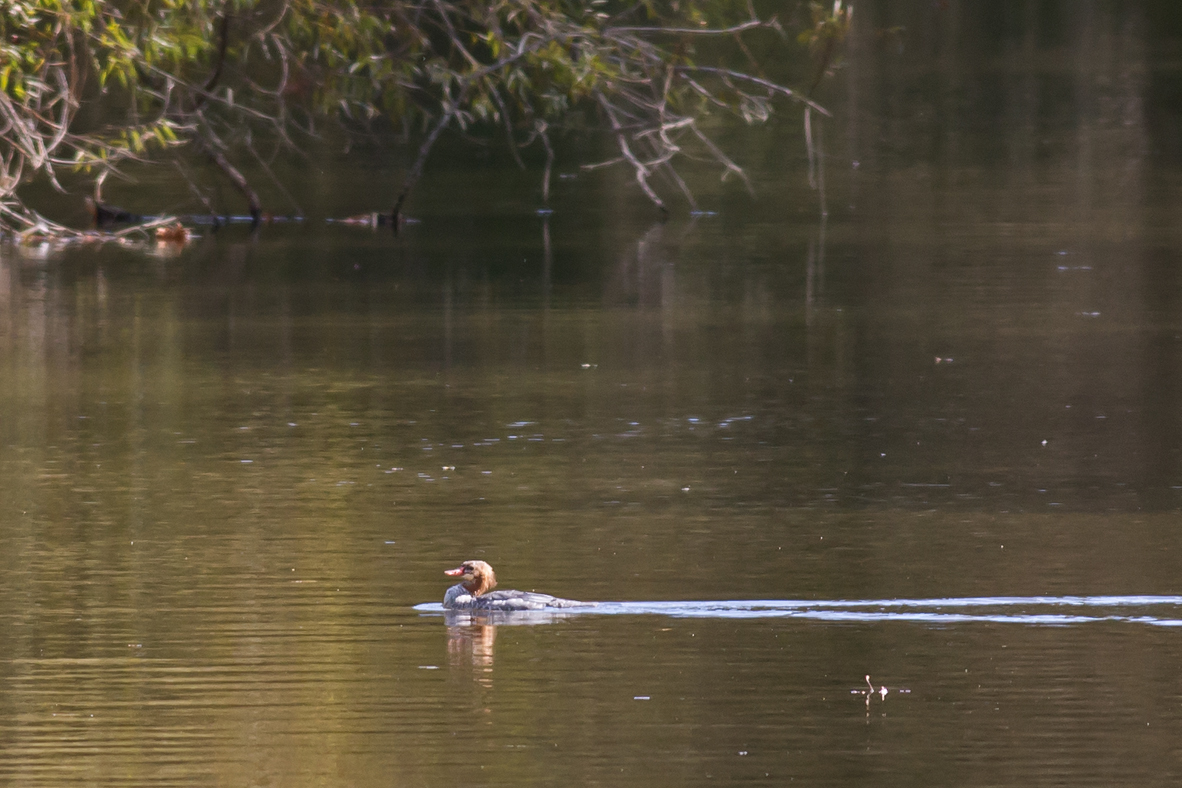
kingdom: Animalia
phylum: Chordata
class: Aves
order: Anseriformes
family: Anatidae
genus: Mergus
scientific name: Mergus merganser
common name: Common merganser
